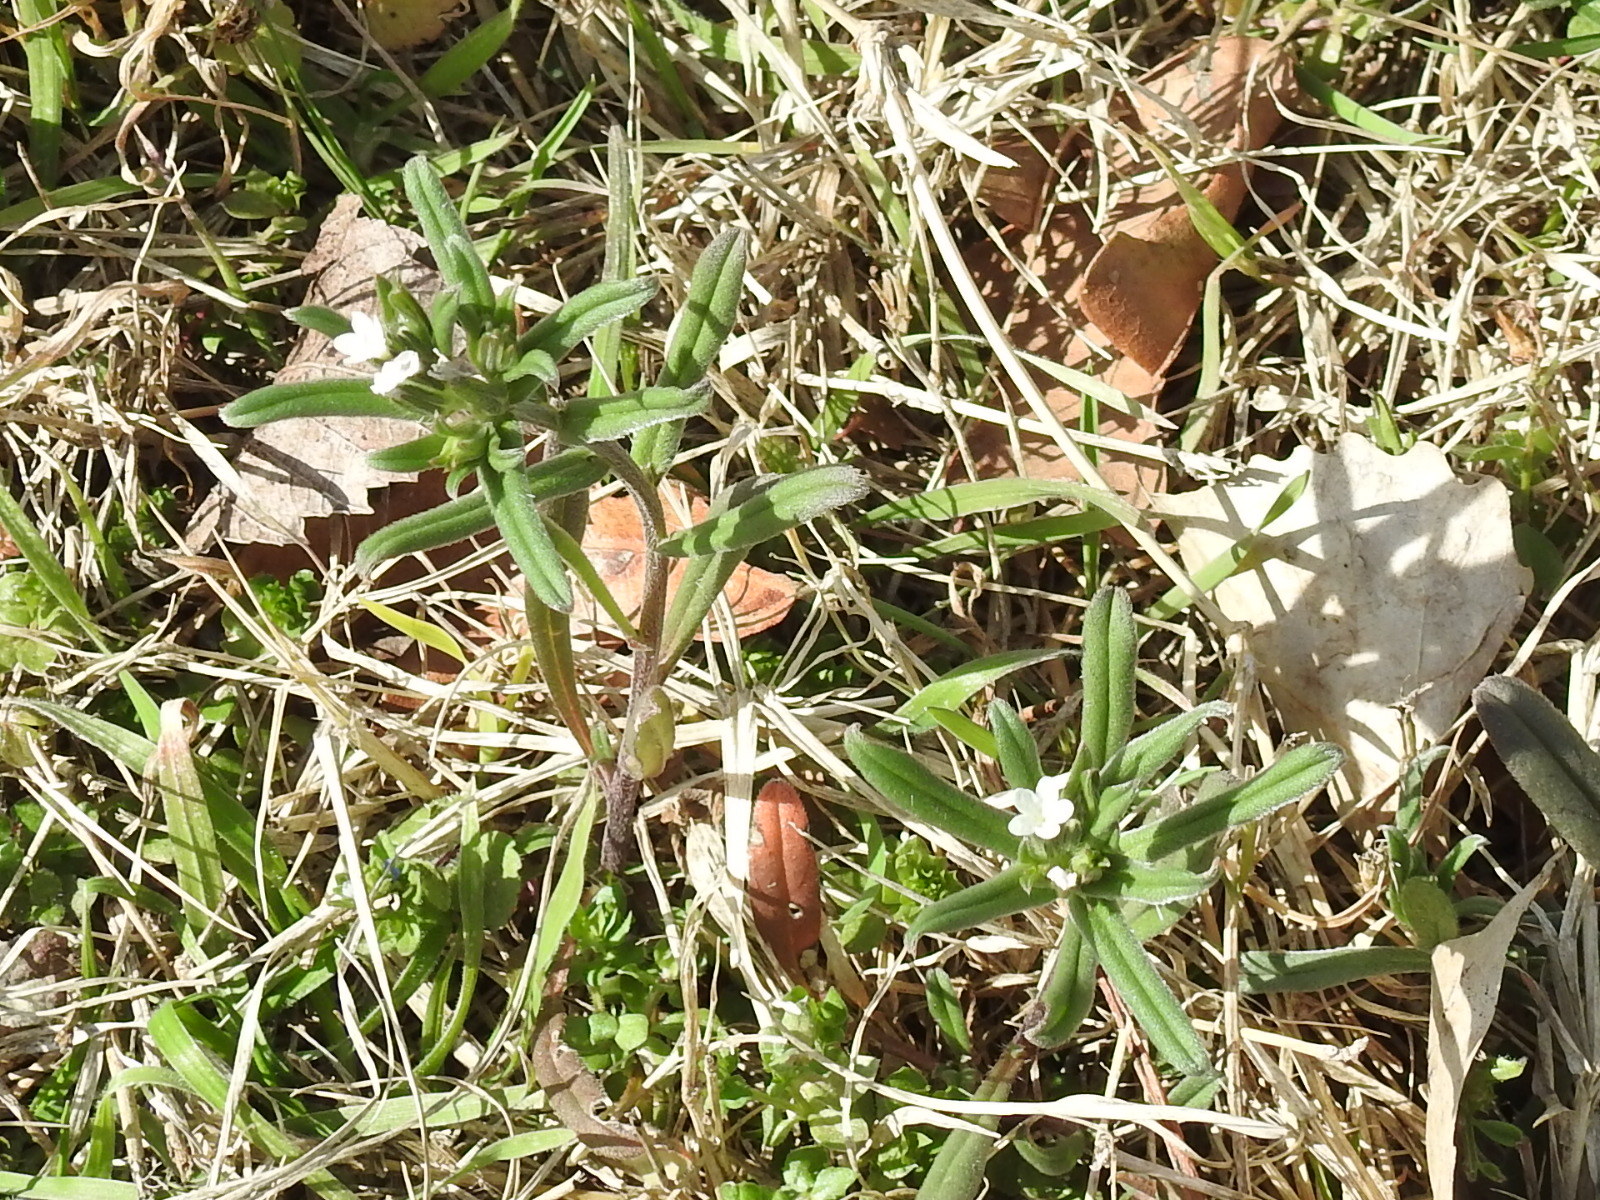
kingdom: Plantae
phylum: Tracheophyta
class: Magnoliopsida
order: Boraginales
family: Boraginaceae
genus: Buglossoides
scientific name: Buglossoides arvensis
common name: Corn gromwell
